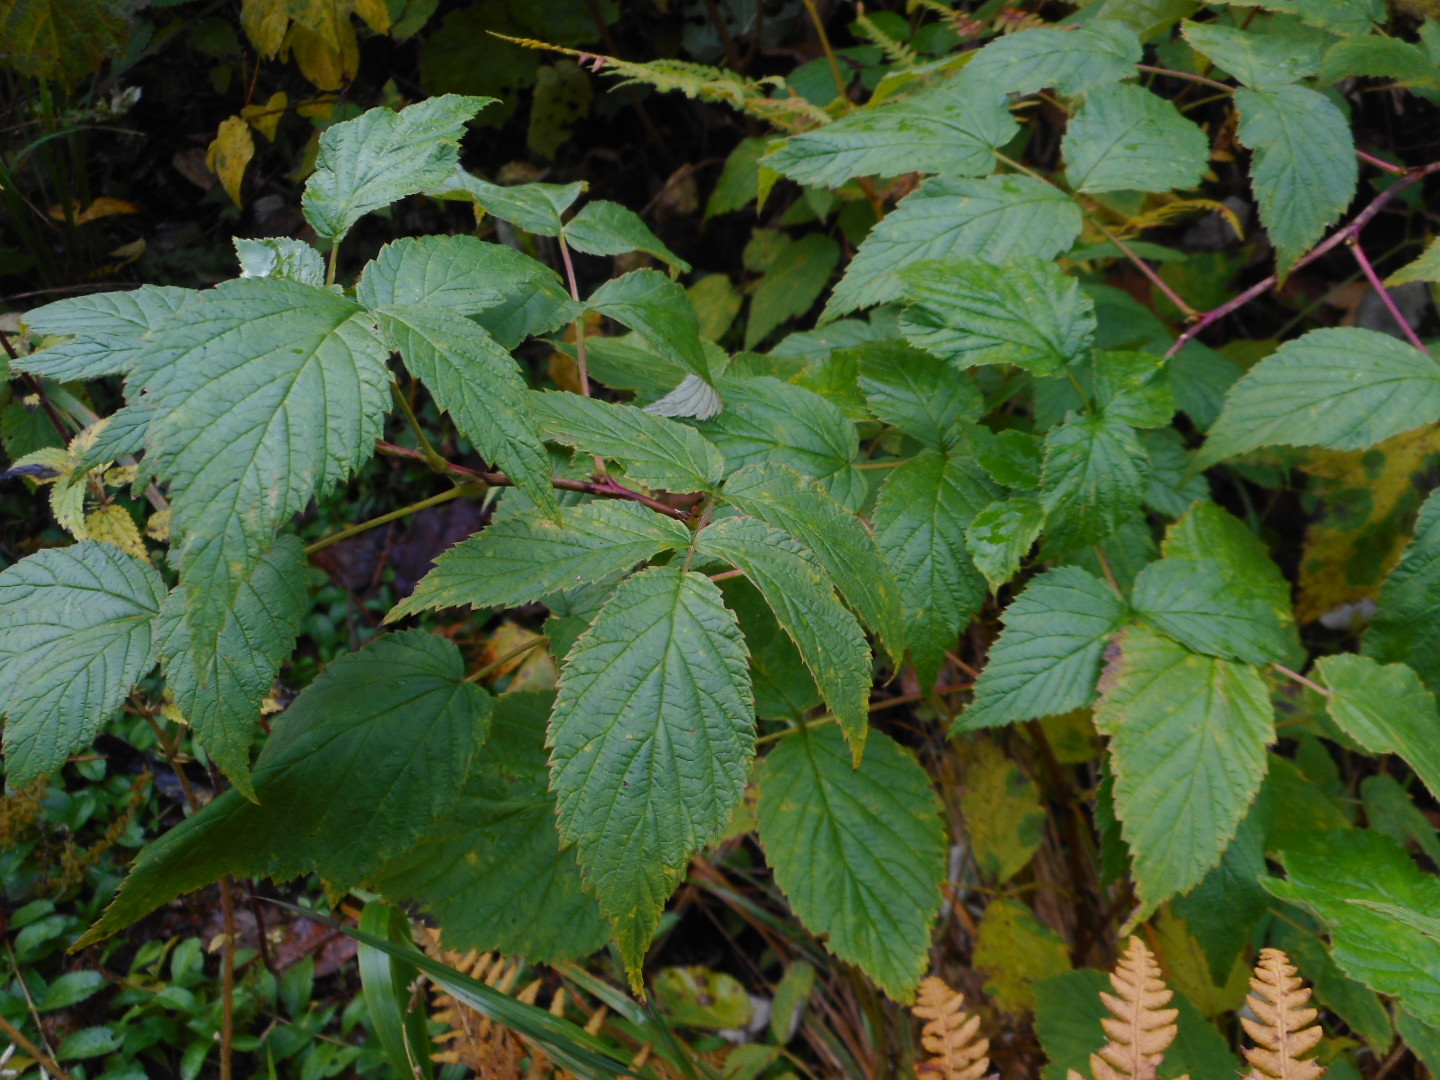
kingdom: Plantae
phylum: Tracheophyta
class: Magnoliopsida
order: Rosales
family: Rosaceae
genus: Rubus
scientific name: Rubus idaeus
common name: Raspberry
